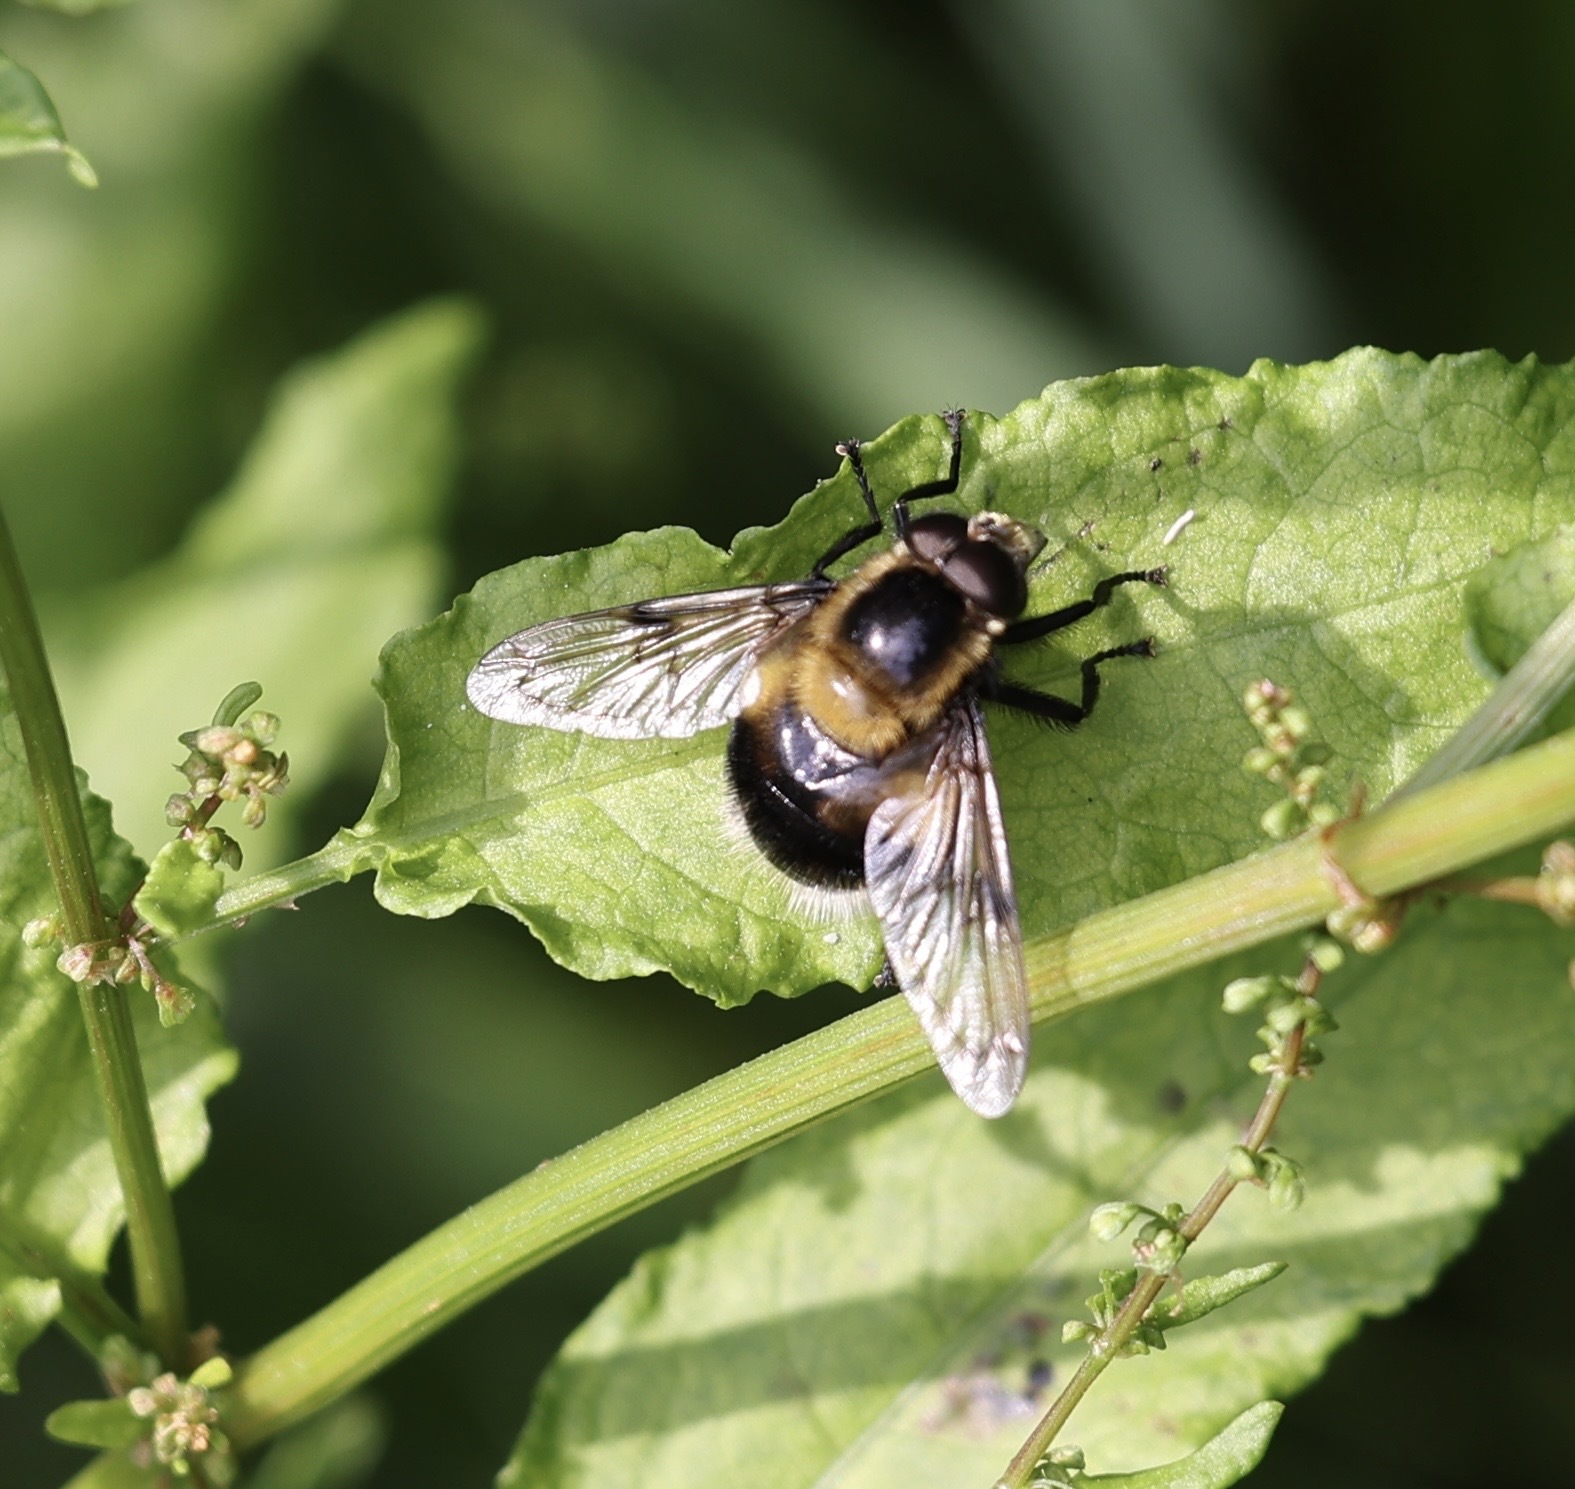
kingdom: Animalia
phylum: Arthropoda
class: Insecta
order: Diptera
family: Syrphidae
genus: Volucella
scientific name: Volucella bombylans
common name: Bumble bee hover fly
